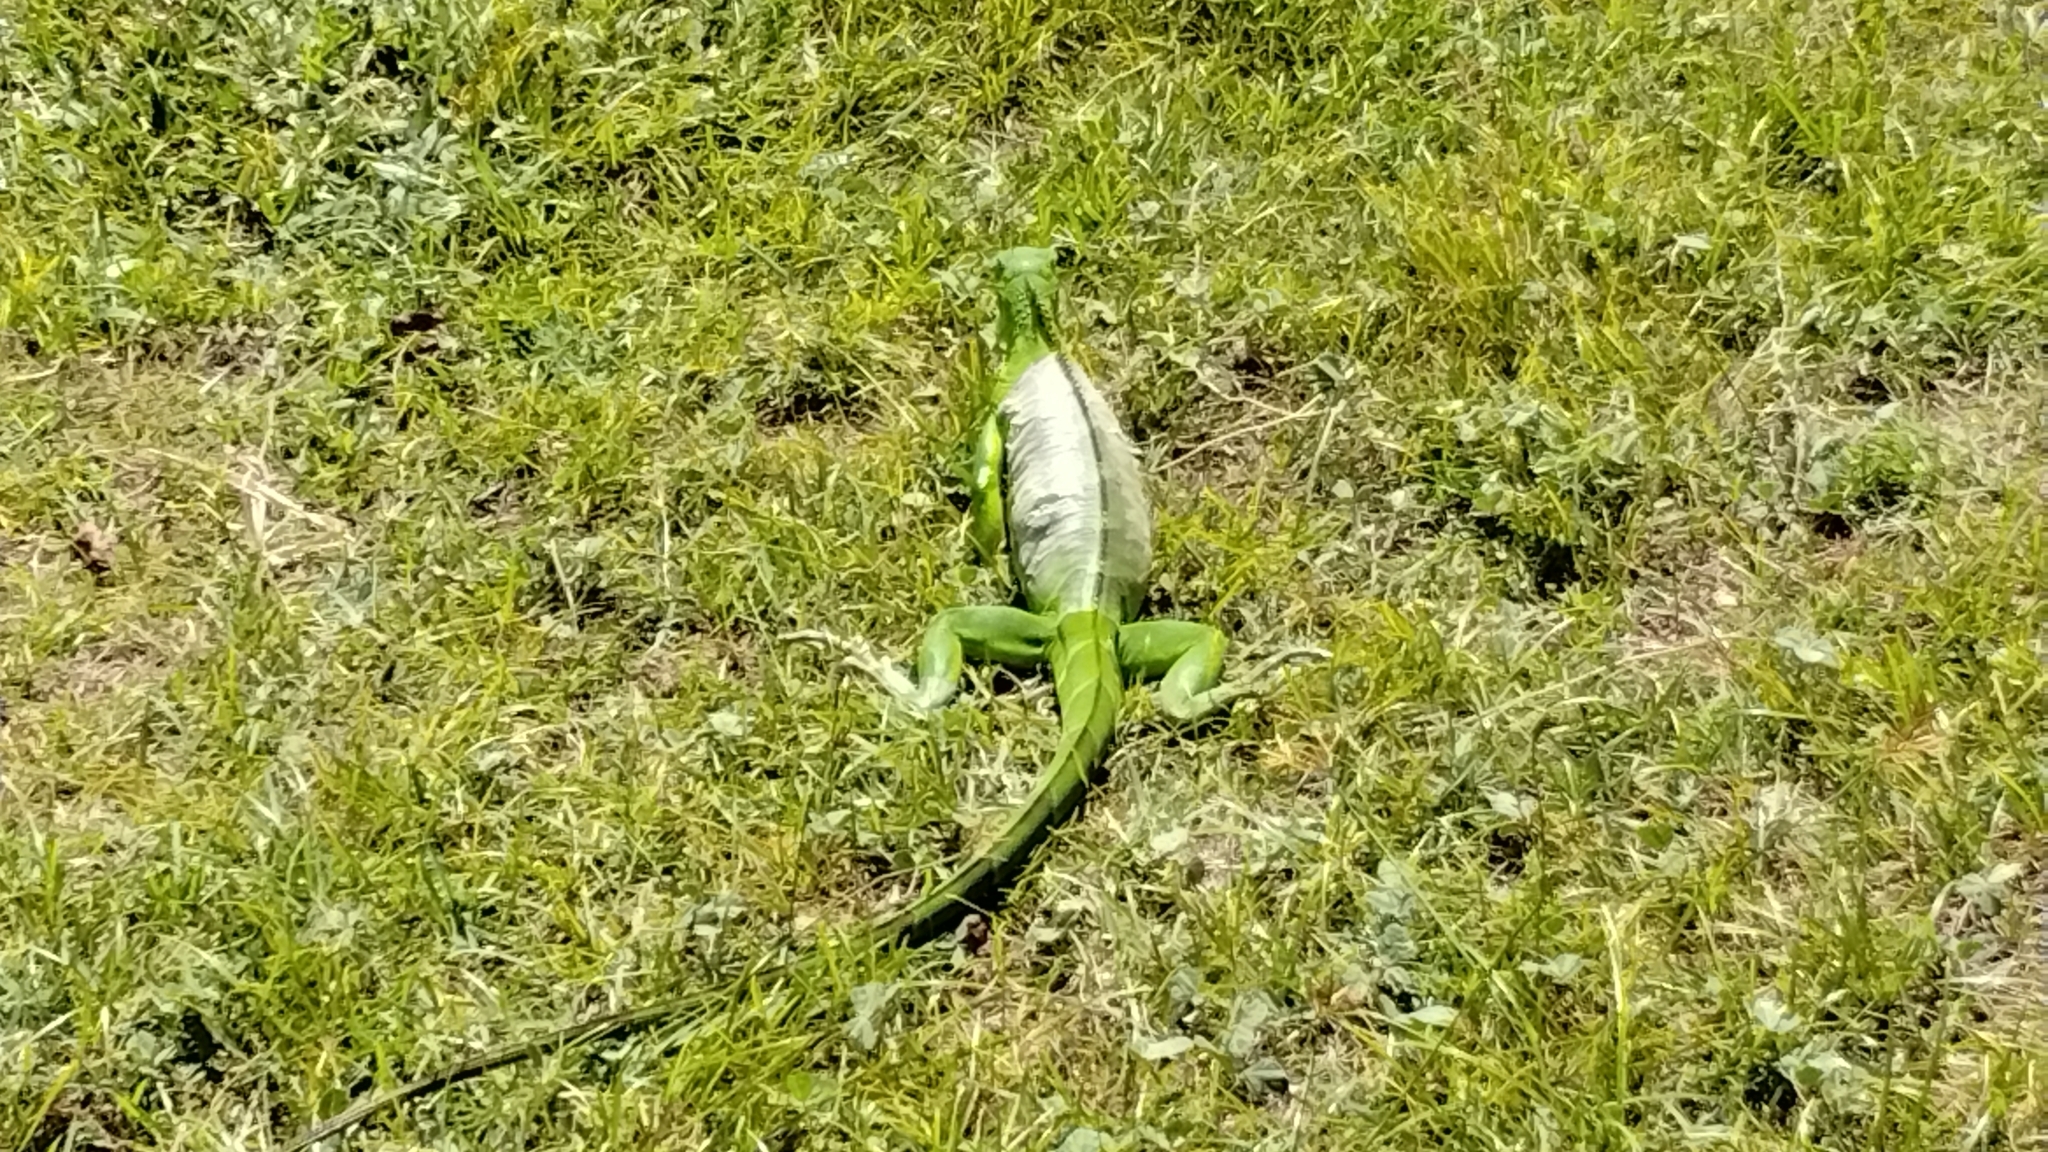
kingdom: Animalia
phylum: Chordata
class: Squamata
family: Iguanidae
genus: Iguana
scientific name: Iguana iguana
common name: Green iguana
